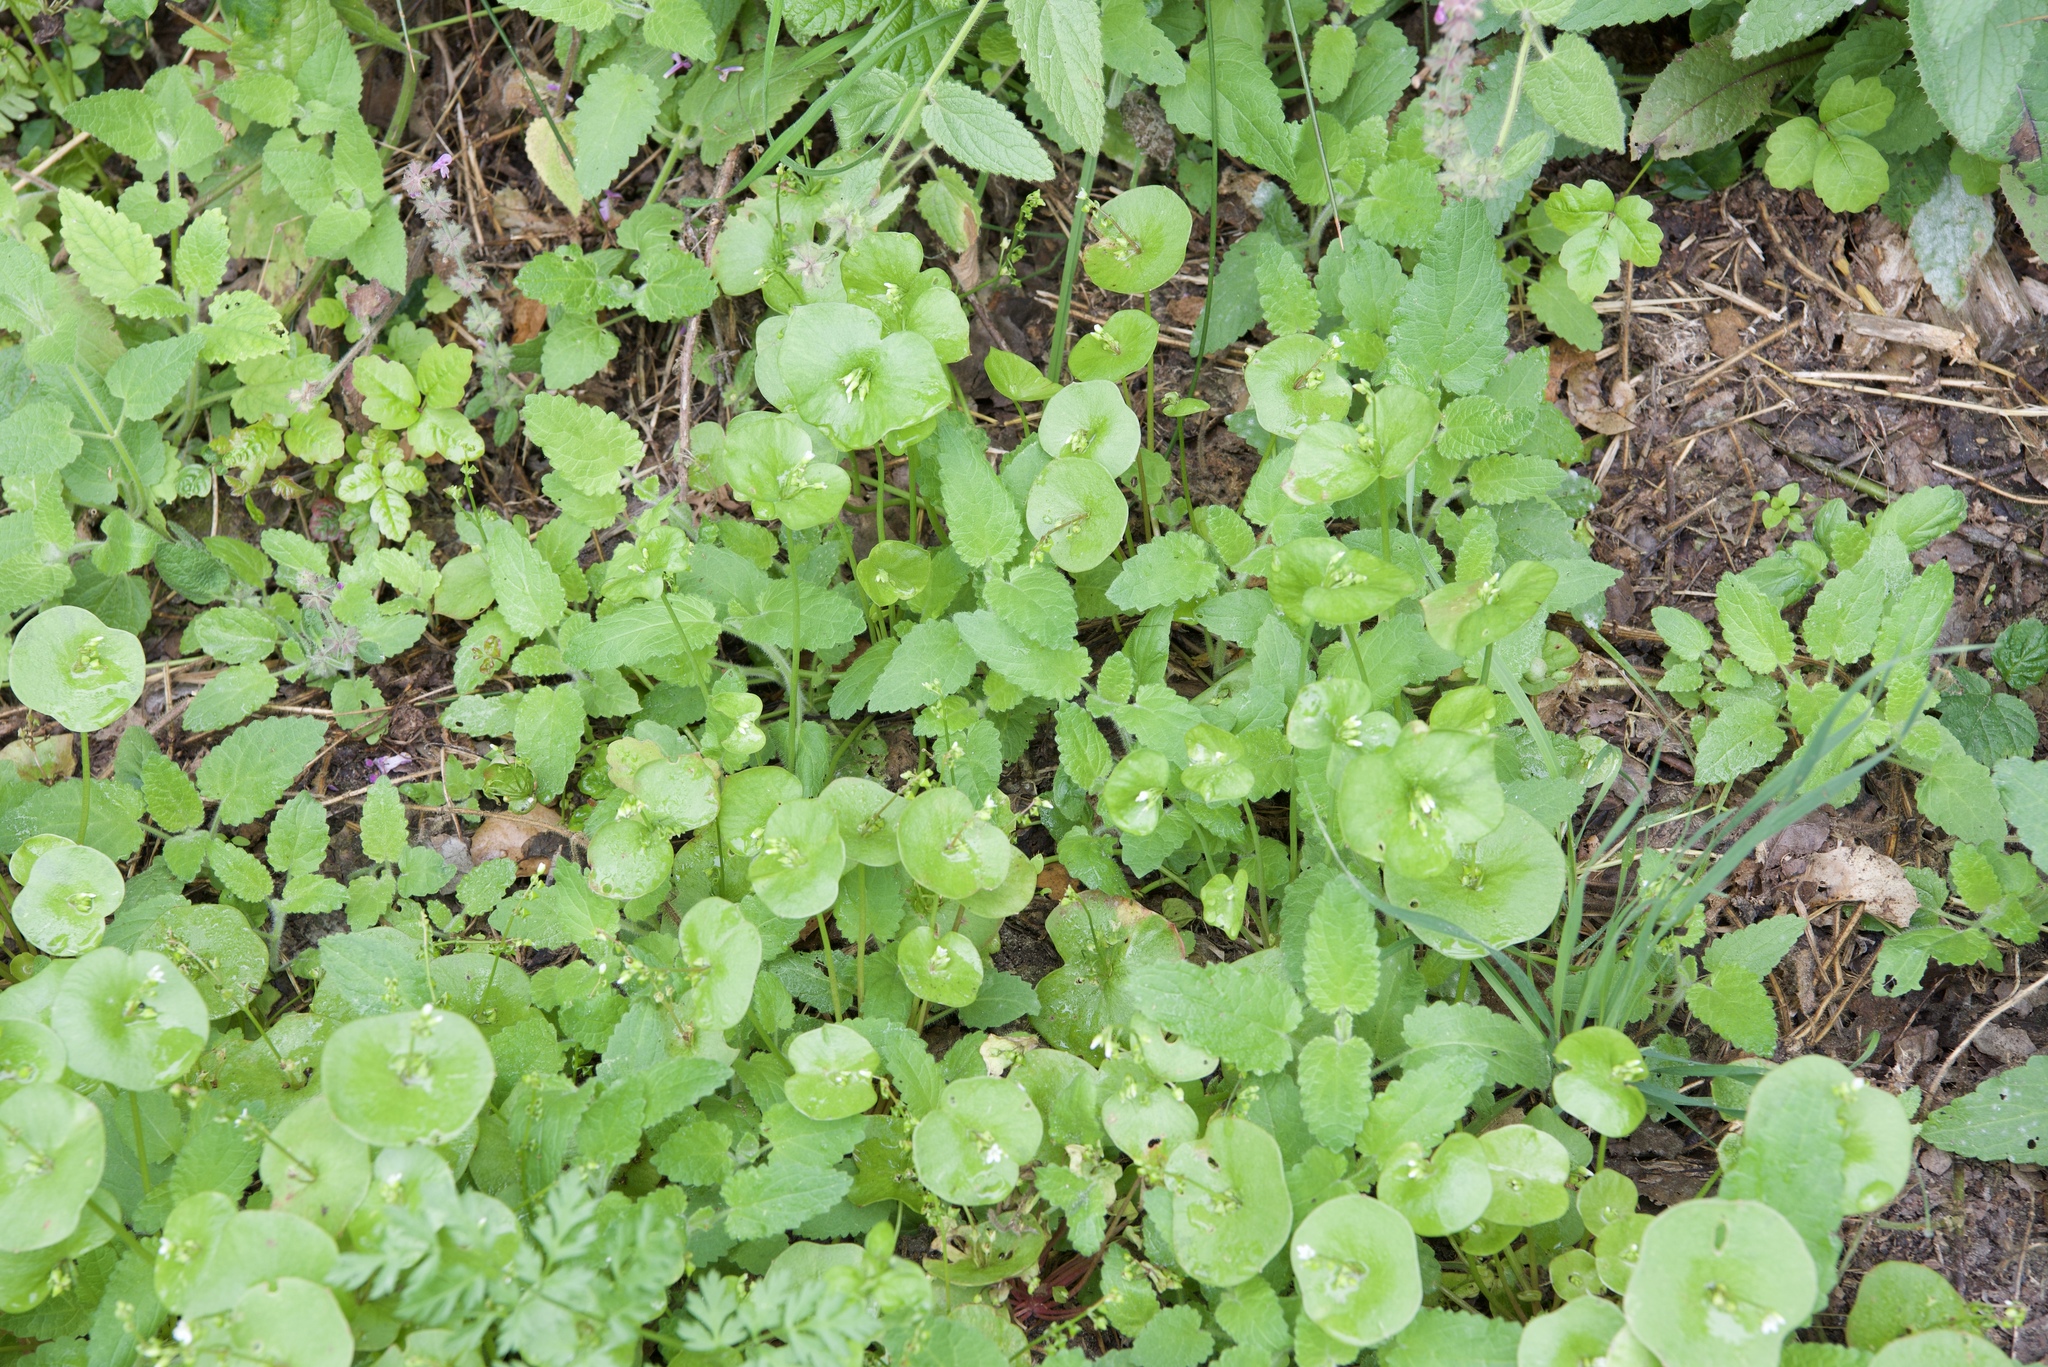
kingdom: Plantae
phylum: Tracheophyta
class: Magnoliopsida
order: Caryophyllales
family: Montiaceae
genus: Claytonia
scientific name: Claytonia perfoliata
